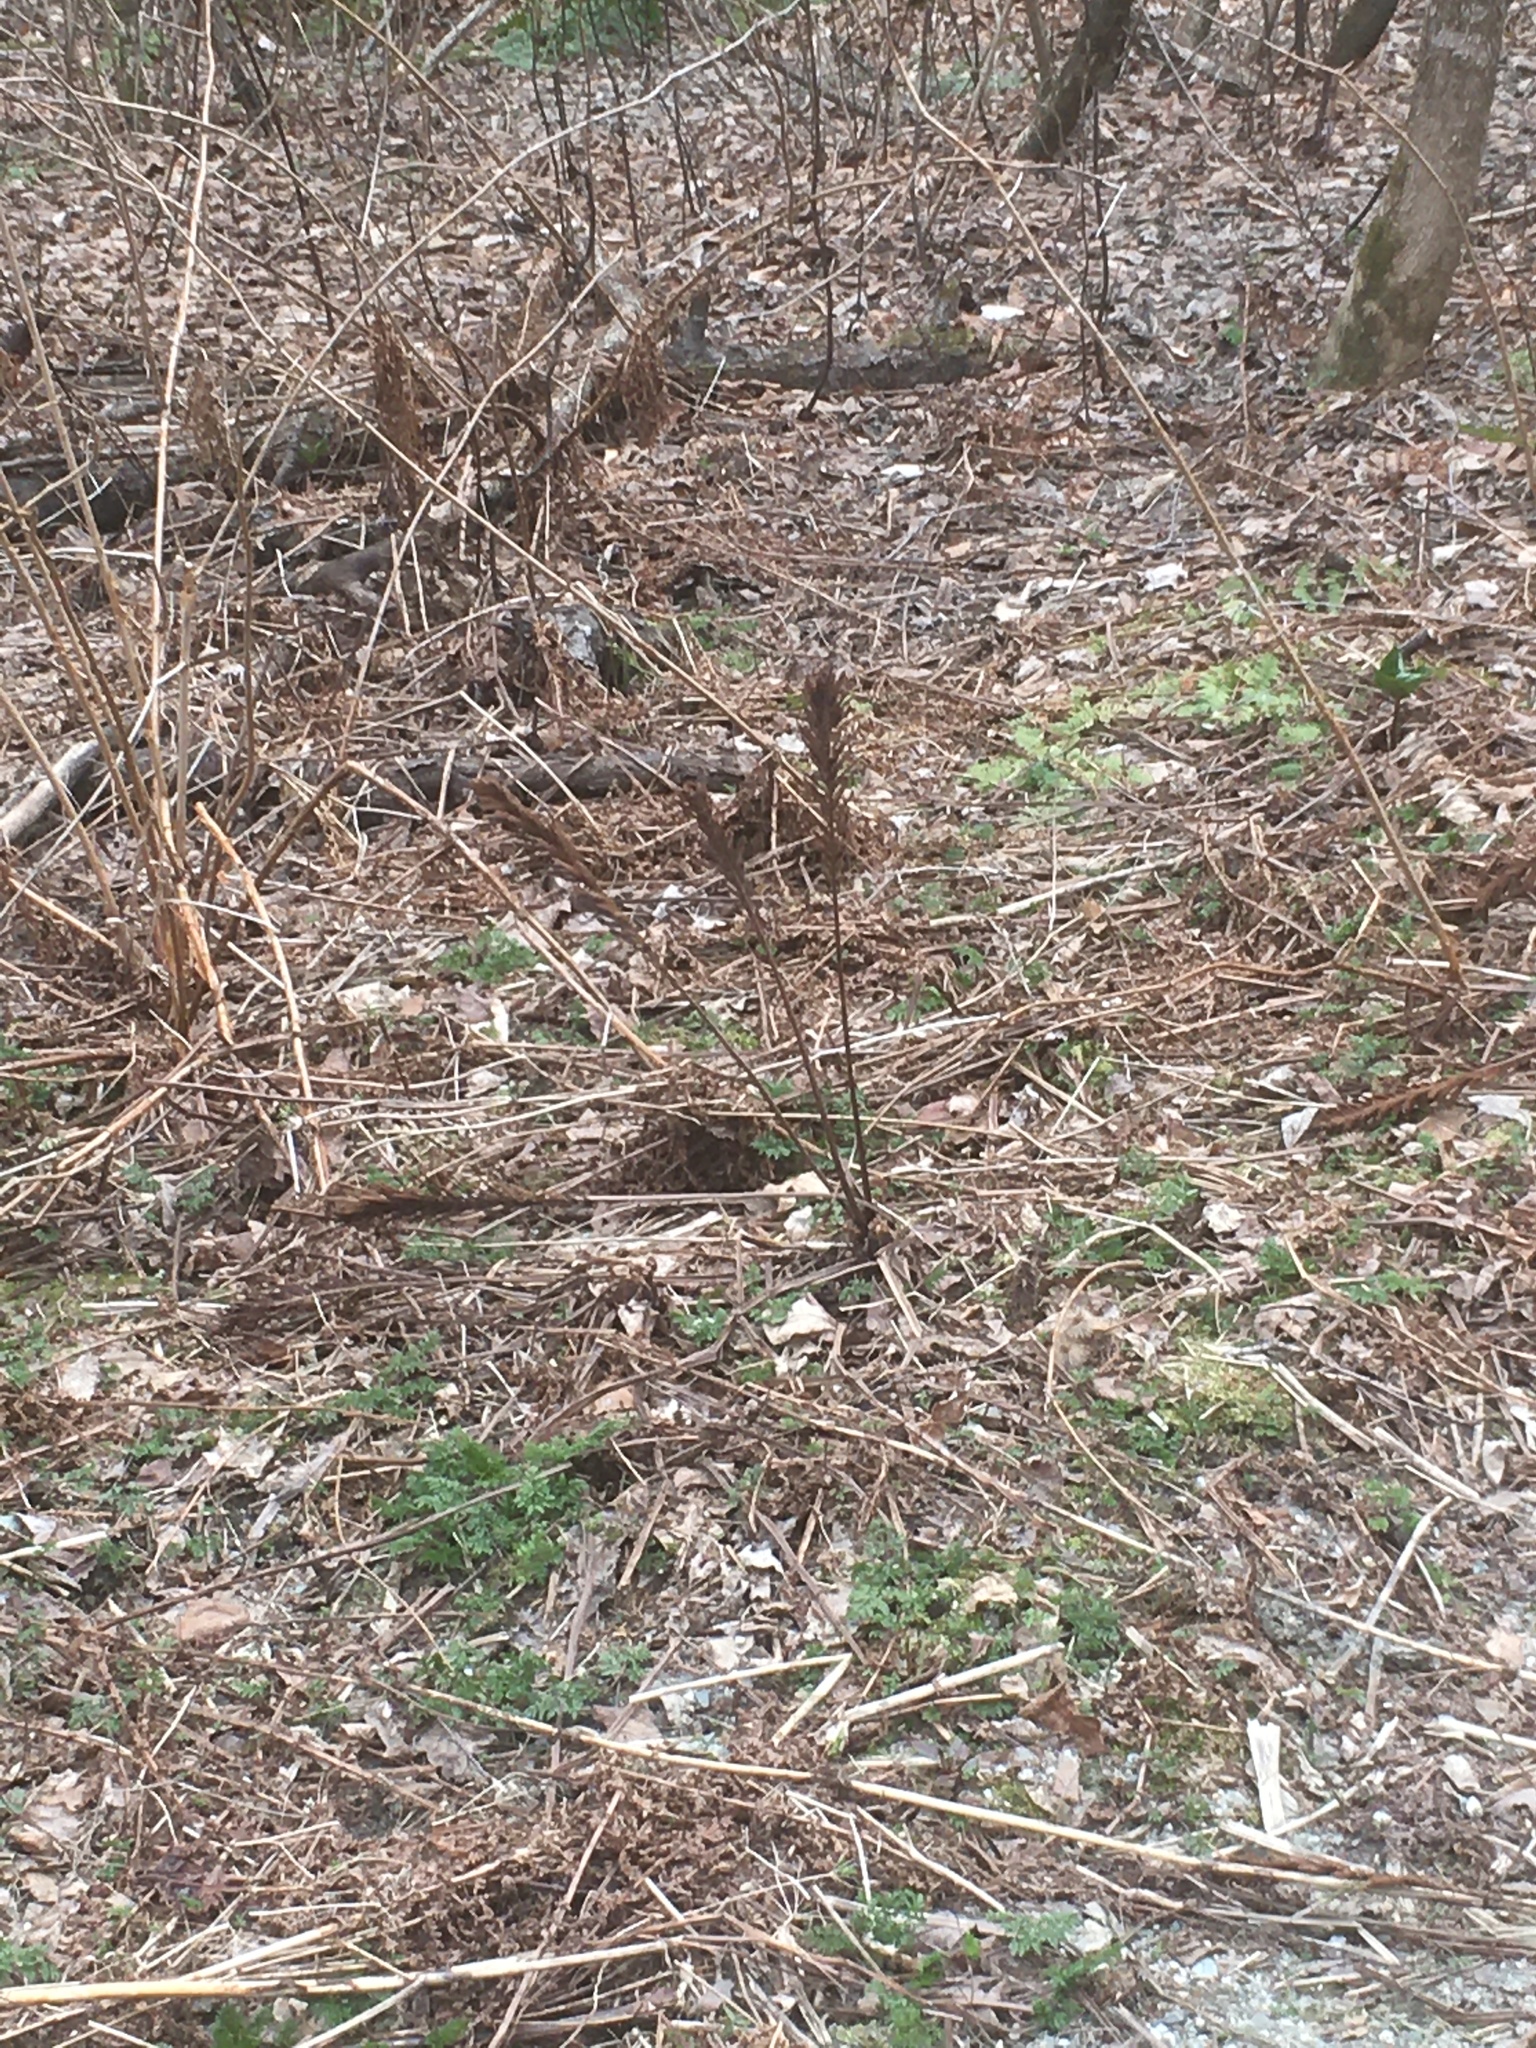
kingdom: Plantae
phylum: Tracheophyta
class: Polypodiopsida
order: Polypodiales
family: Onocleaceae
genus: Matteuccia
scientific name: Matteuccia struthiopteris
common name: Ostrich fern
